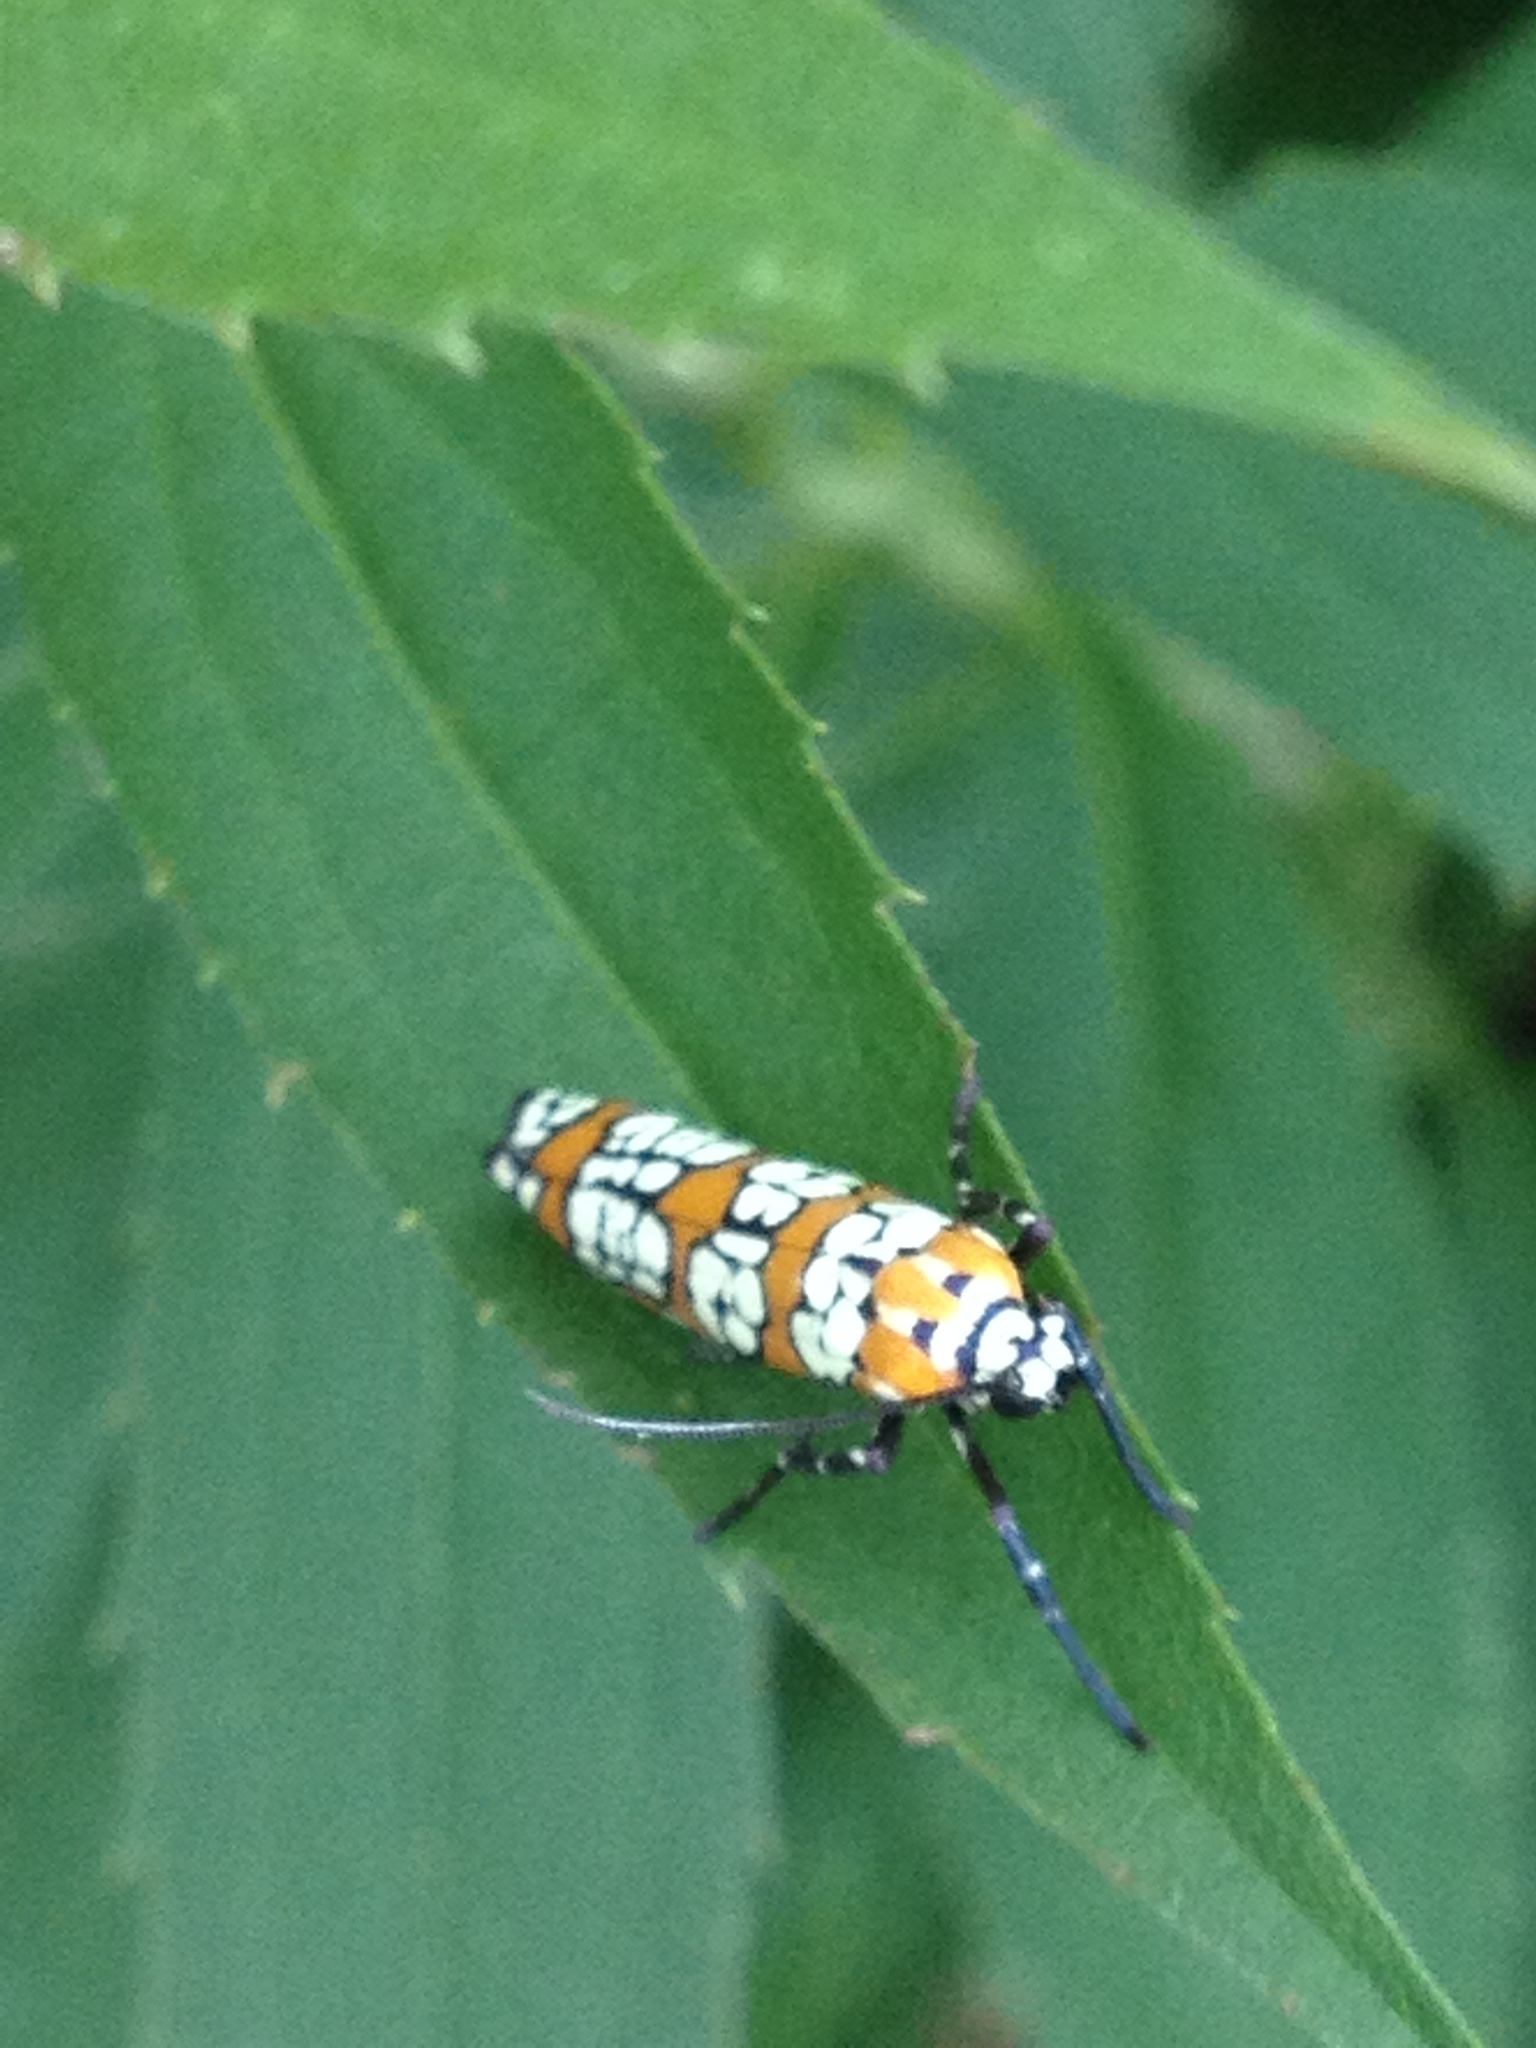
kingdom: Animalia
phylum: Arthropoda
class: Insecta
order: Lepidoptera
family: Attevidae
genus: Atteva
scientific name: Atteva punctella
